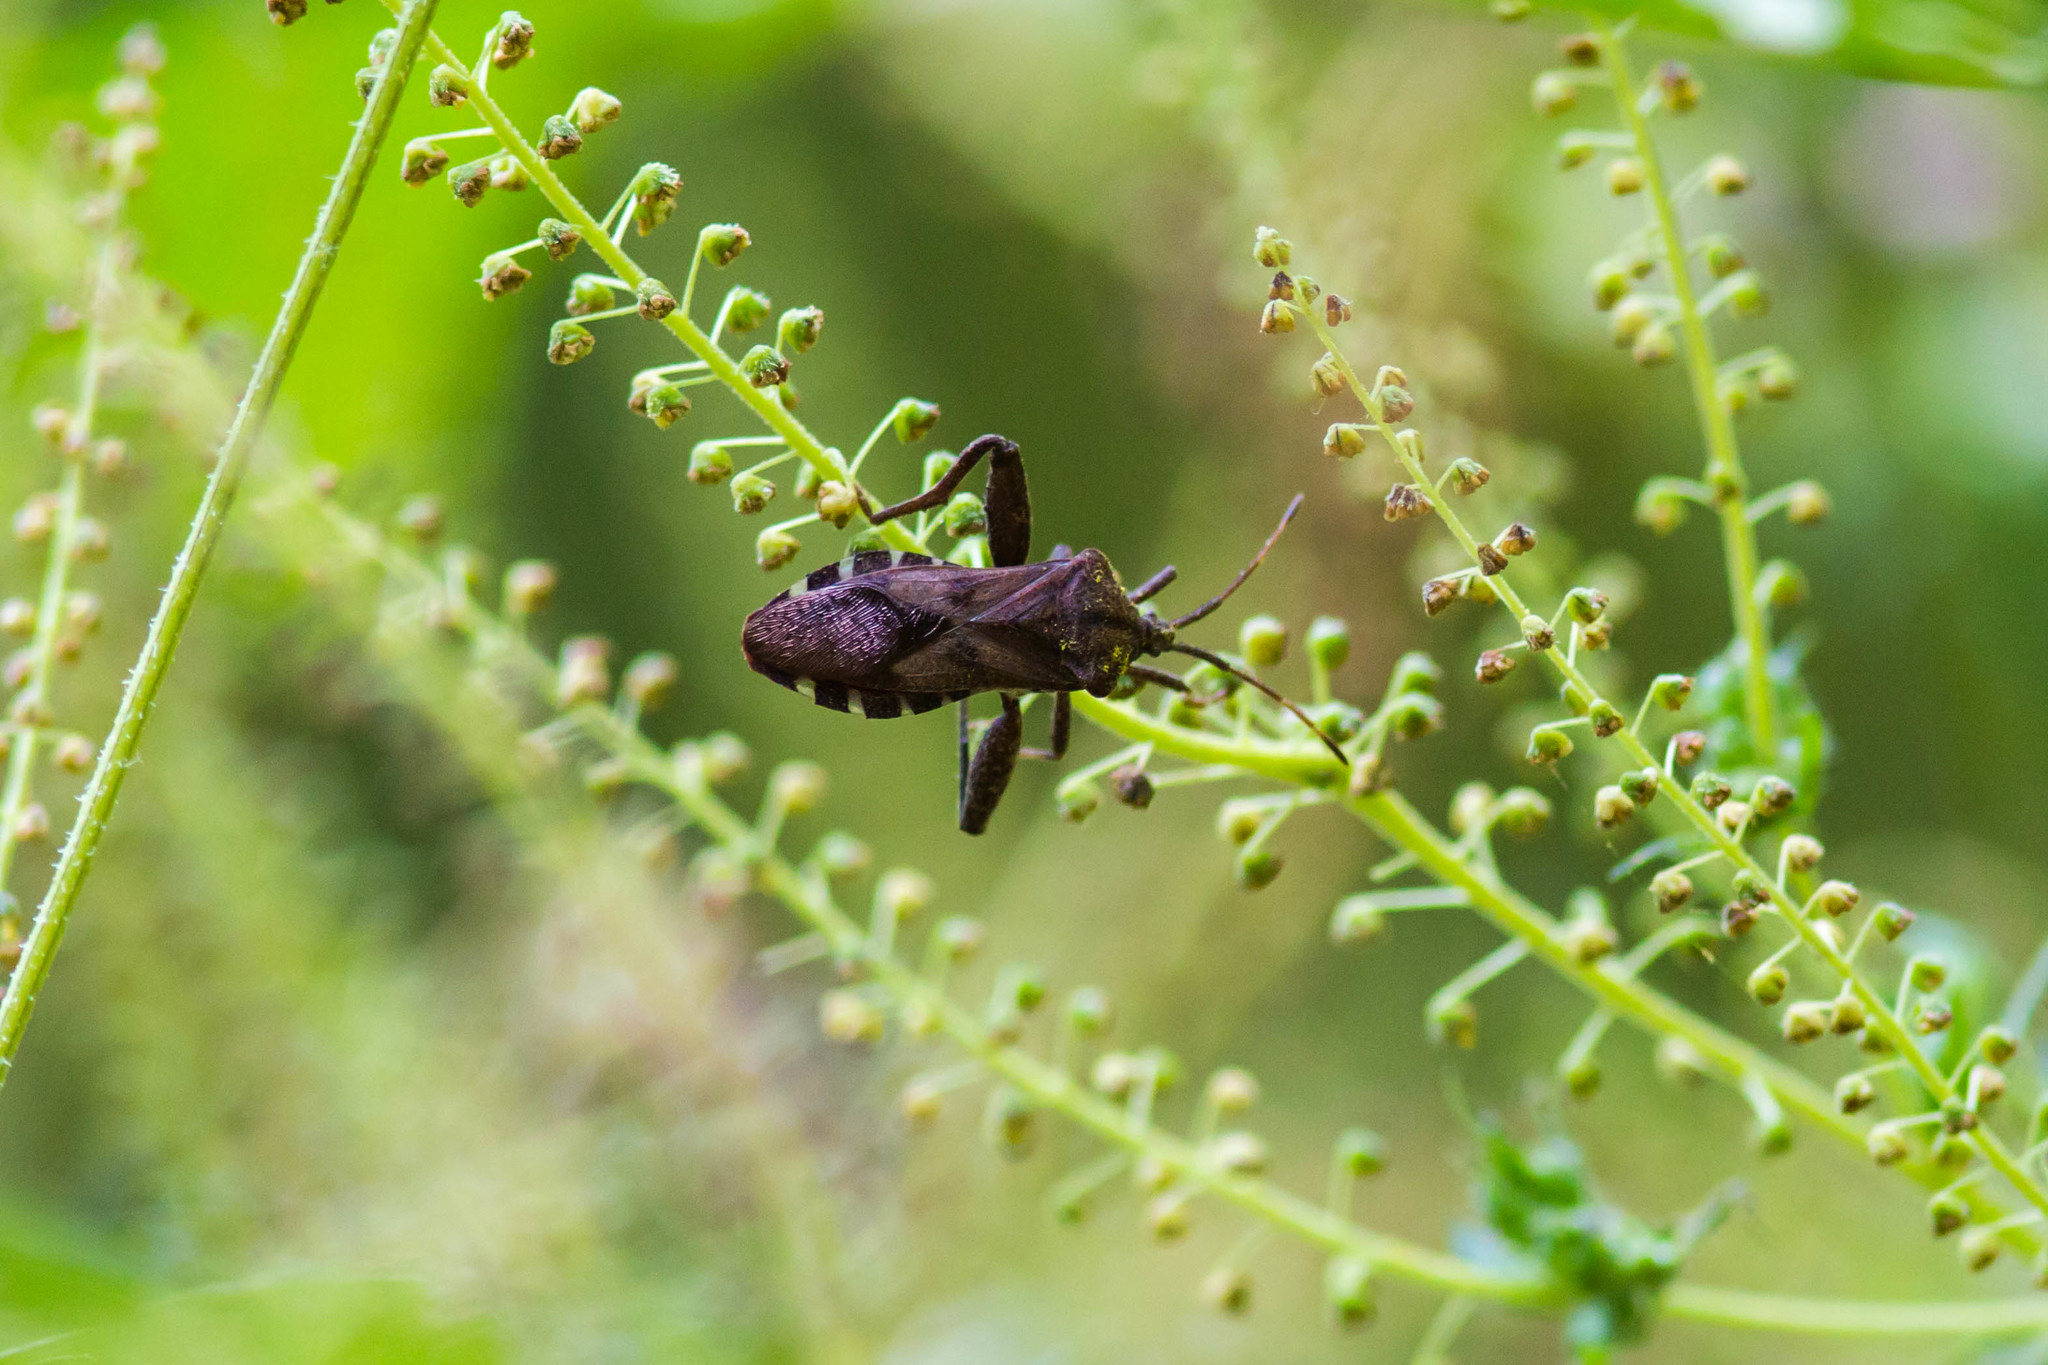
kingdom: Animalia
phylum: Arthropoda
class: Insecta
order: Hemiptera
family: Coreidae
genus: Piezogaster
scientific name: Piezogaster calcarator
